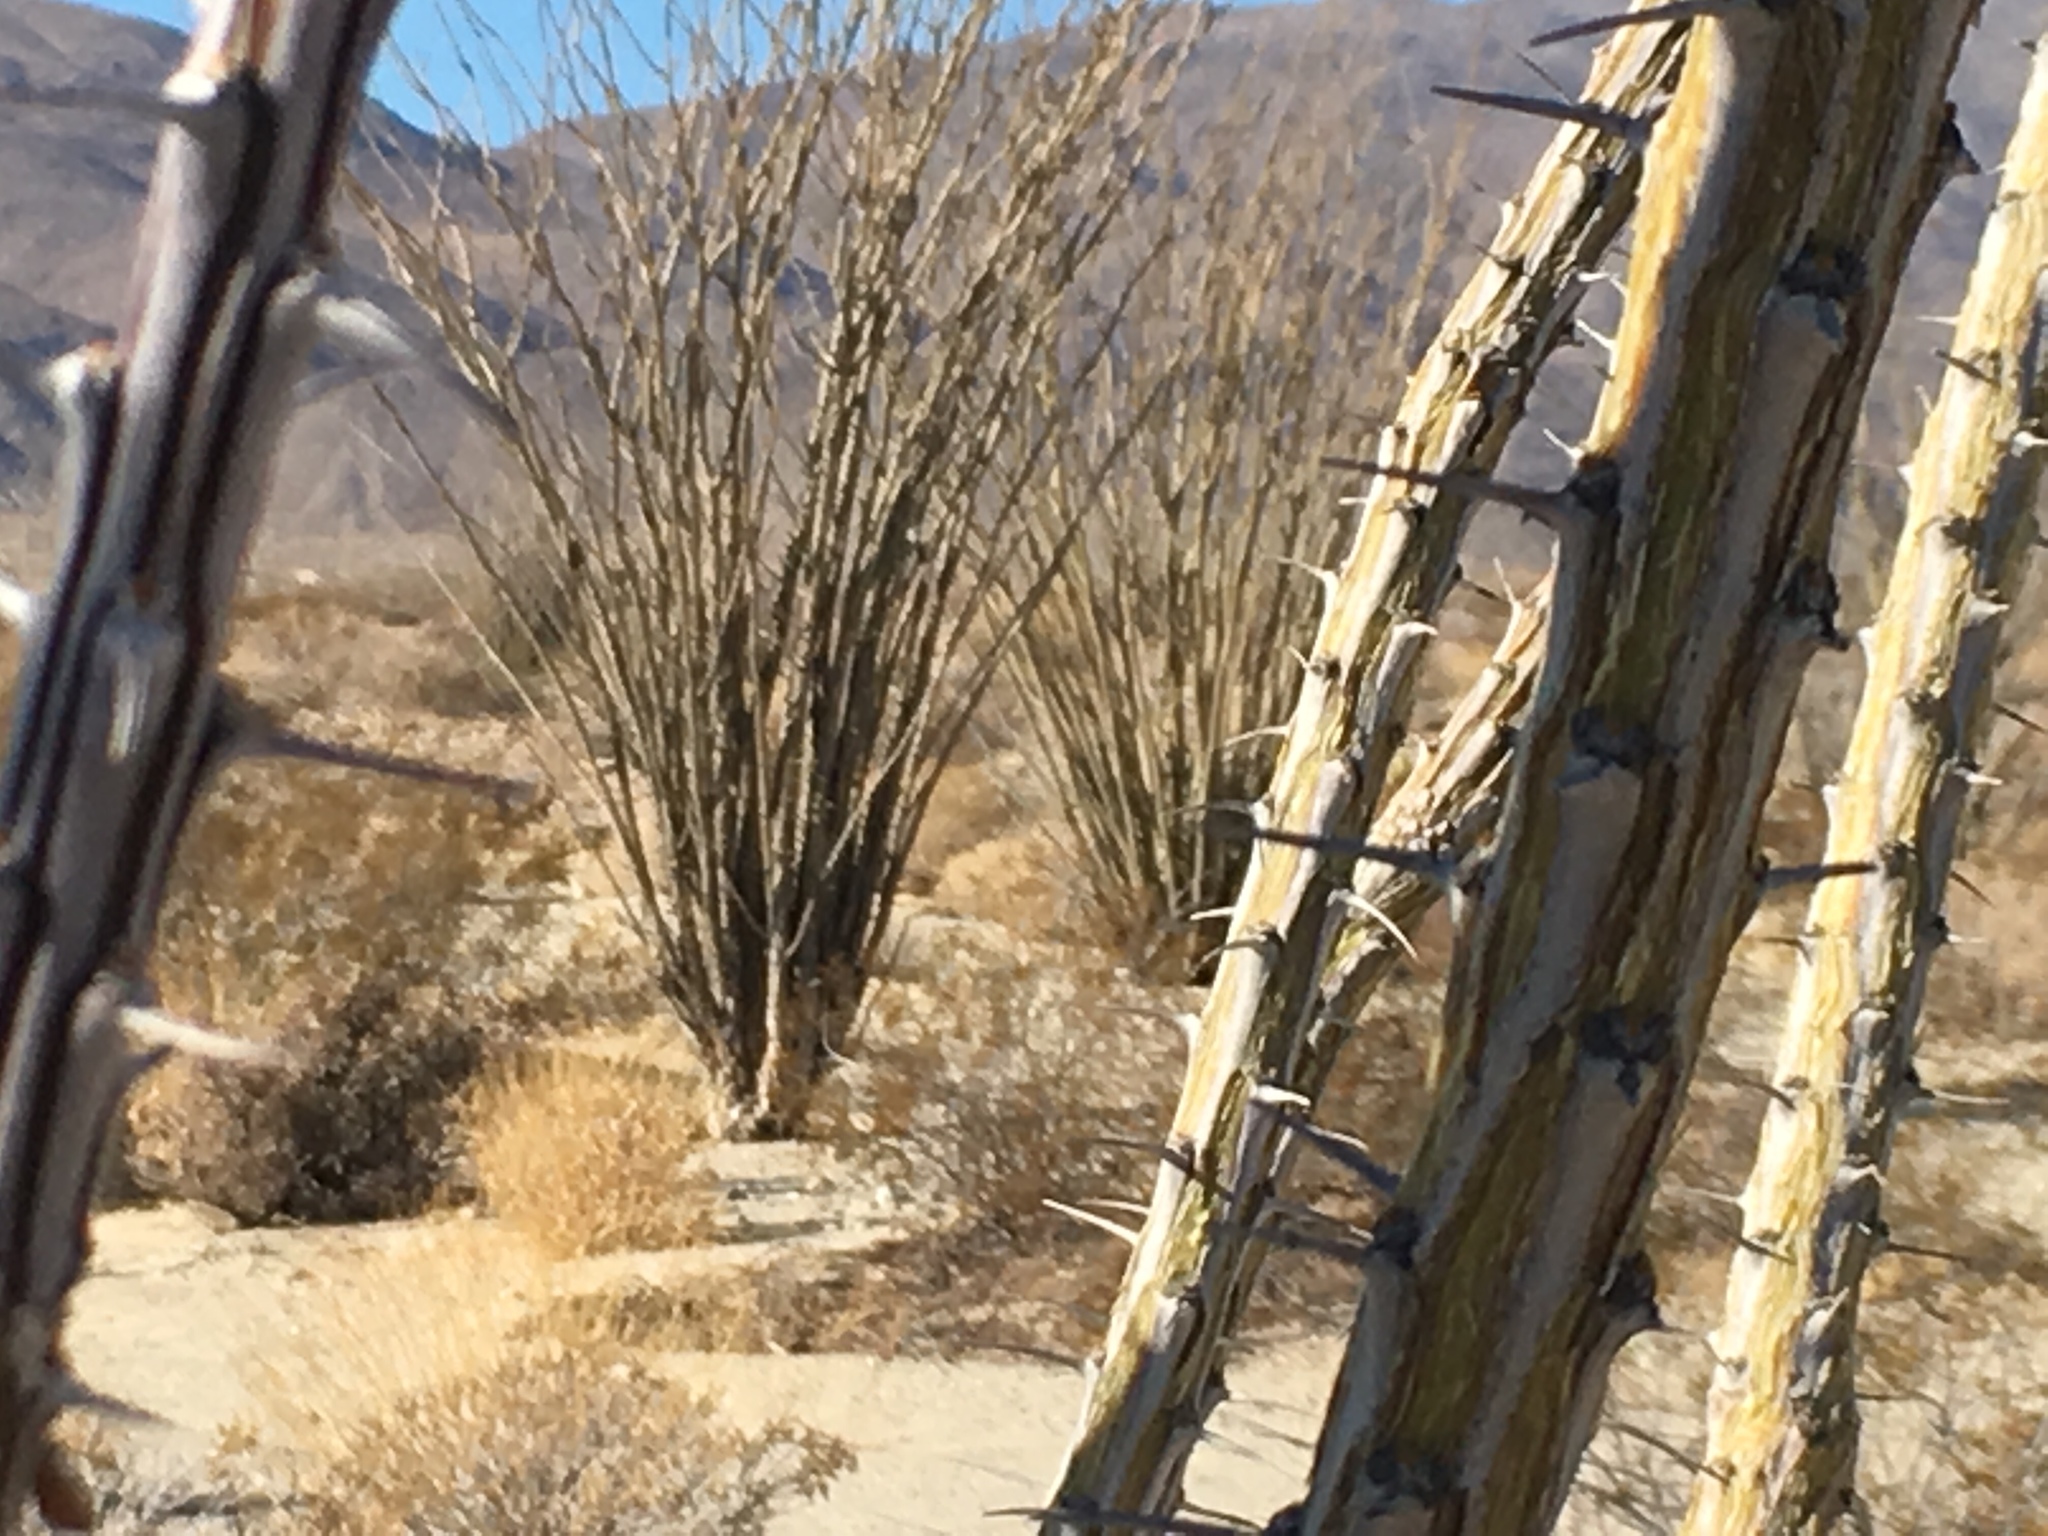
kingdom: Plantae
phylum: Tracheophyta
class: Magnoliopsida
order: Ericales
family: Fouquieriaceae
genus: Fouquieria
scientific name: Fouquieria splendens
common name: Vine-cactus
